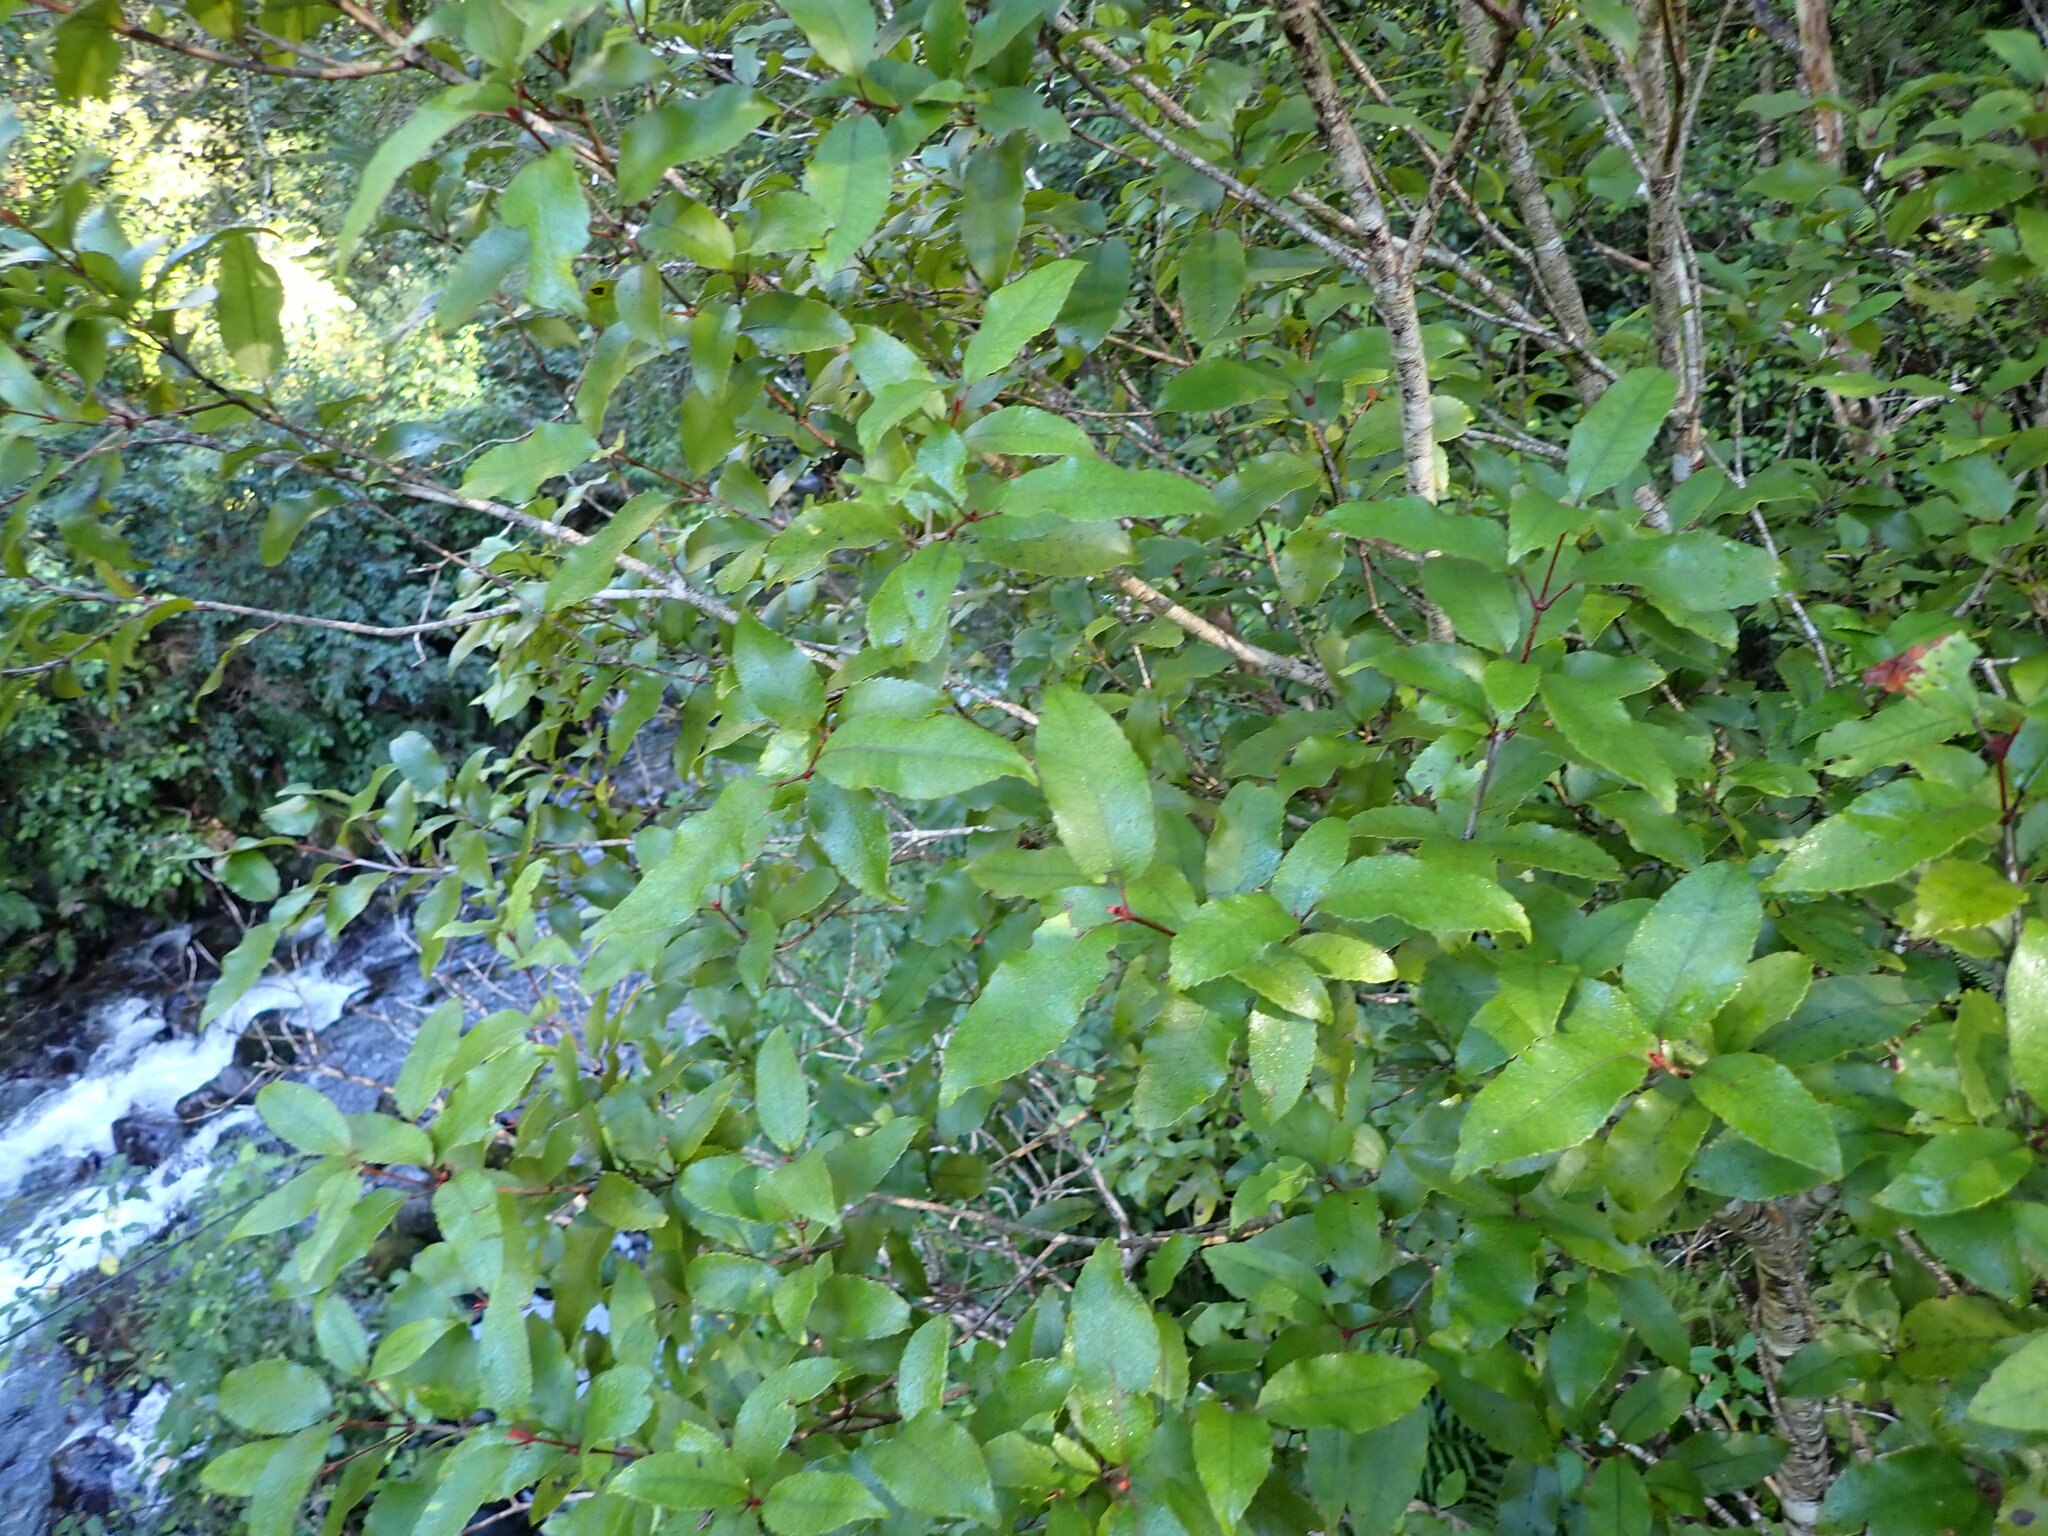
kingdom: Plantae
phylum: Tracheophyta
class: Magnoliopsida
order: Oxalidales
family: Cunoniaceae
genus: Pterophylla
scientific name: Pterophylla racemosa
